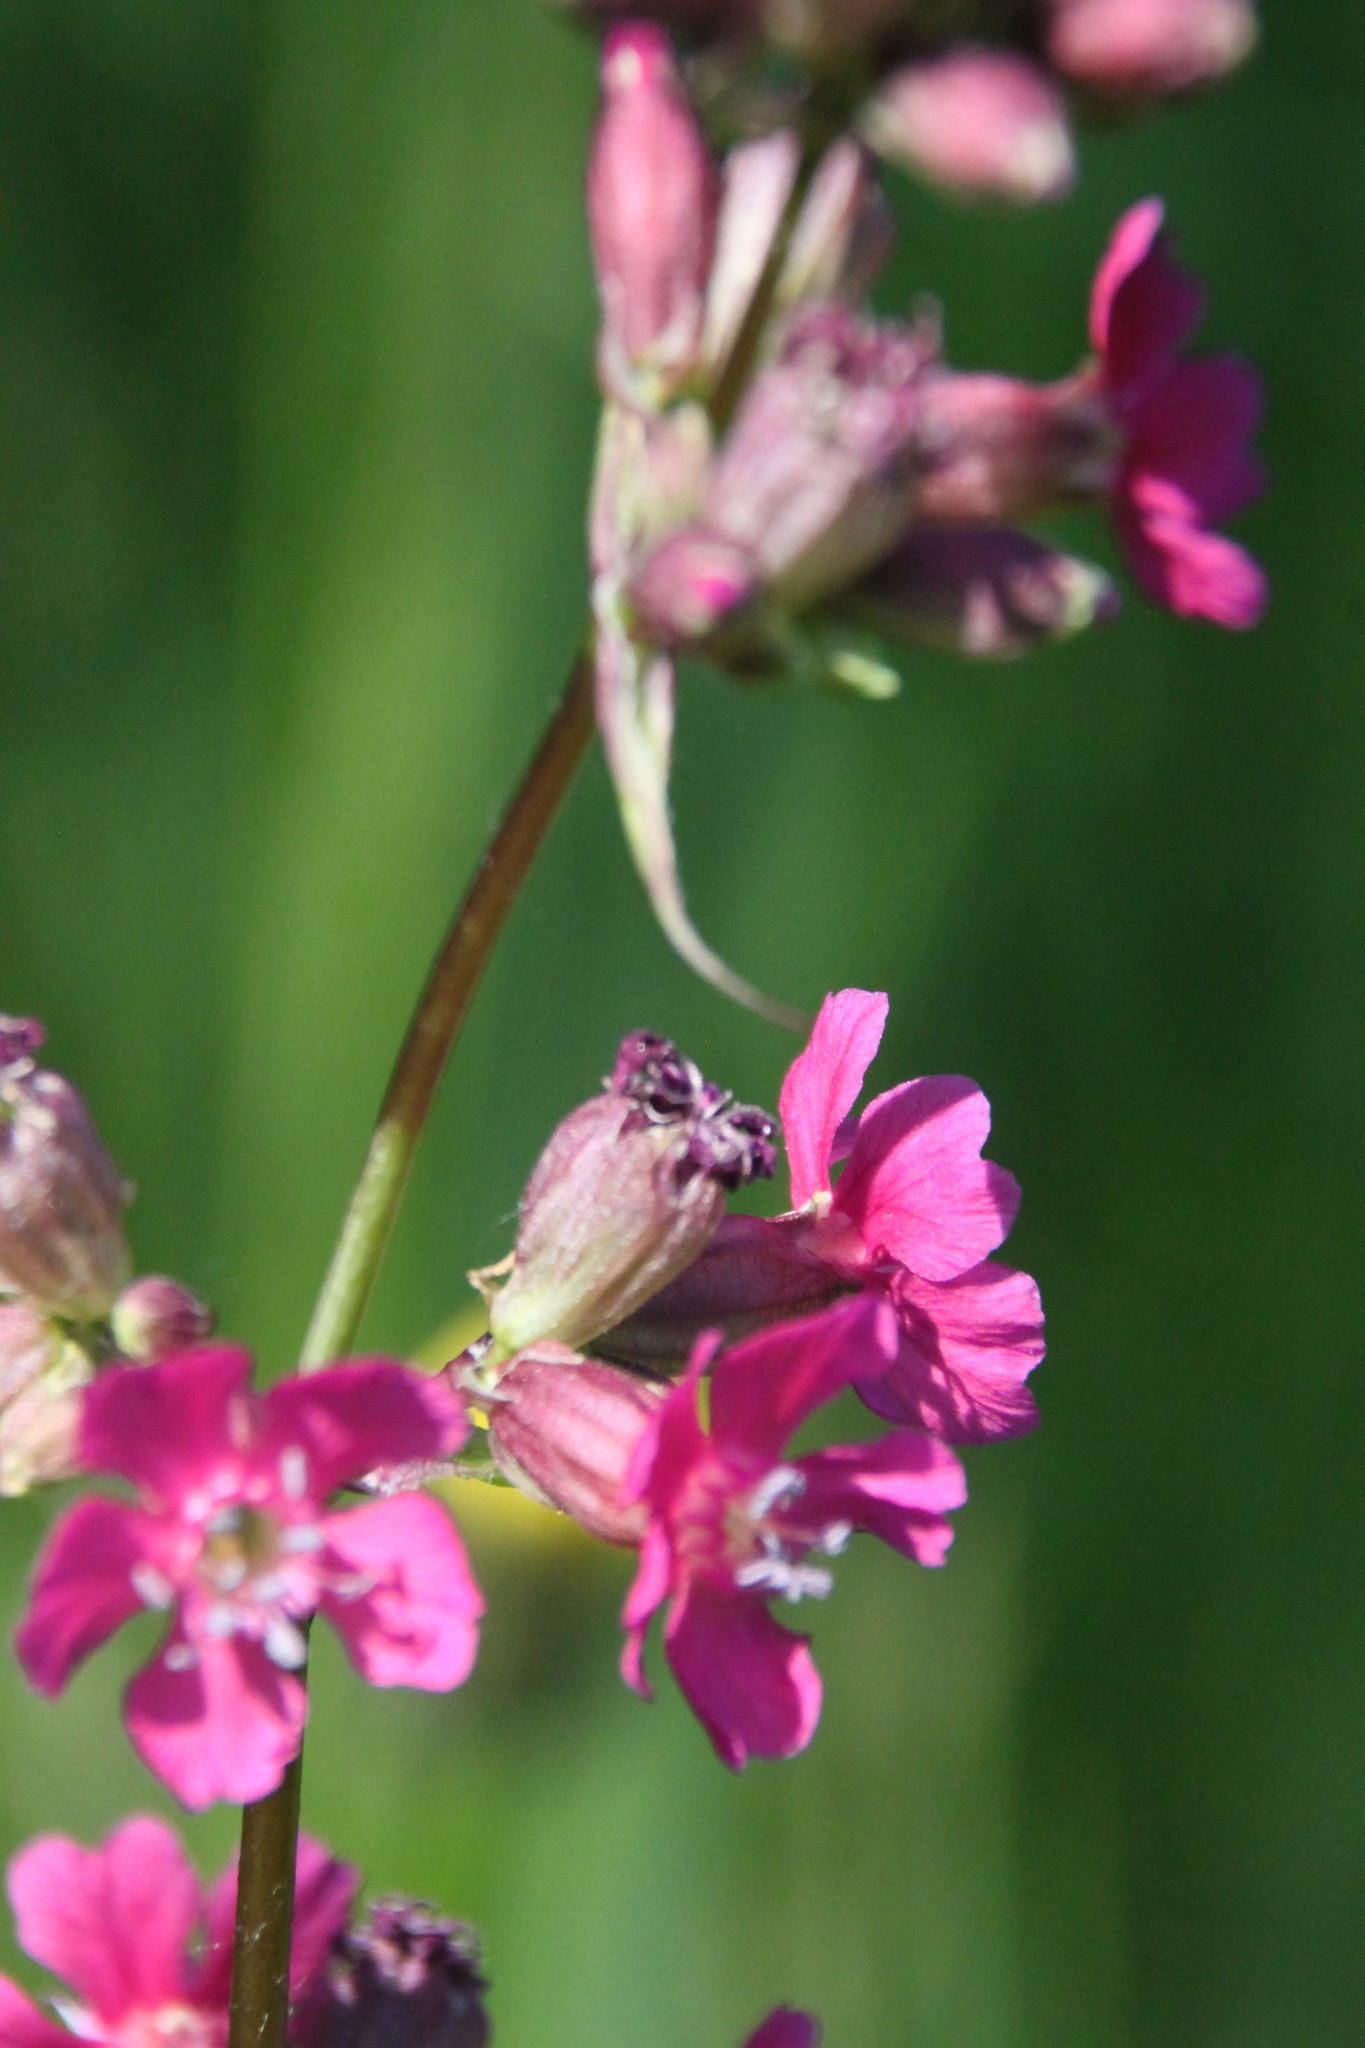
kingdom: Plantae
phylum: Tracheophyta
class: Magnoliopsida
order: Caryophyllales
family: Caryophyllaceae
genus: Viscaria
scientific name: Viscaria vulgaris
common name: Clammy campion
